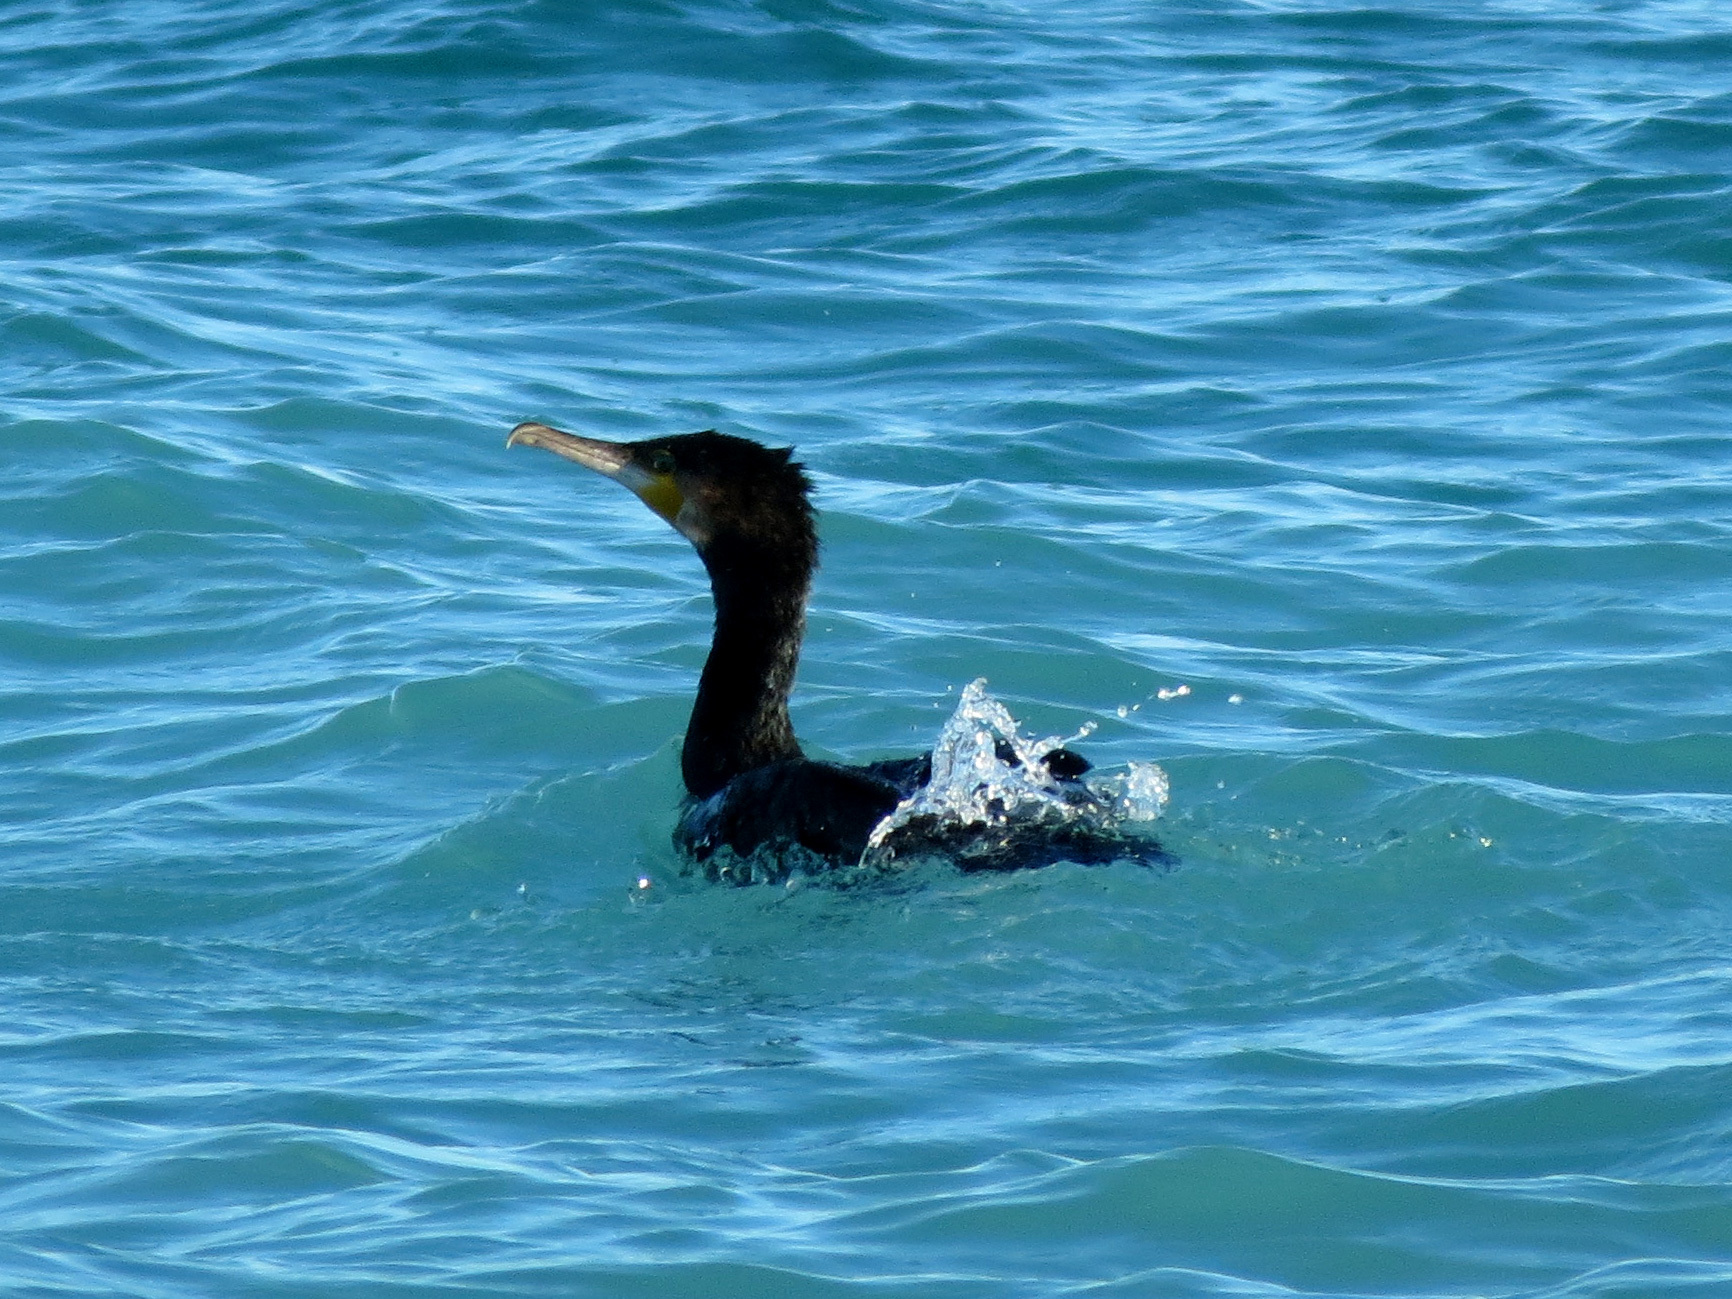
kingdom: Animalia
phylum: Chordata
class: Aves
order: Suliformes
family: Phalacrocoracidae
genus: Phalacrocorax
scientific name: Phalacrocorax carbo
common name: Great cormorant
